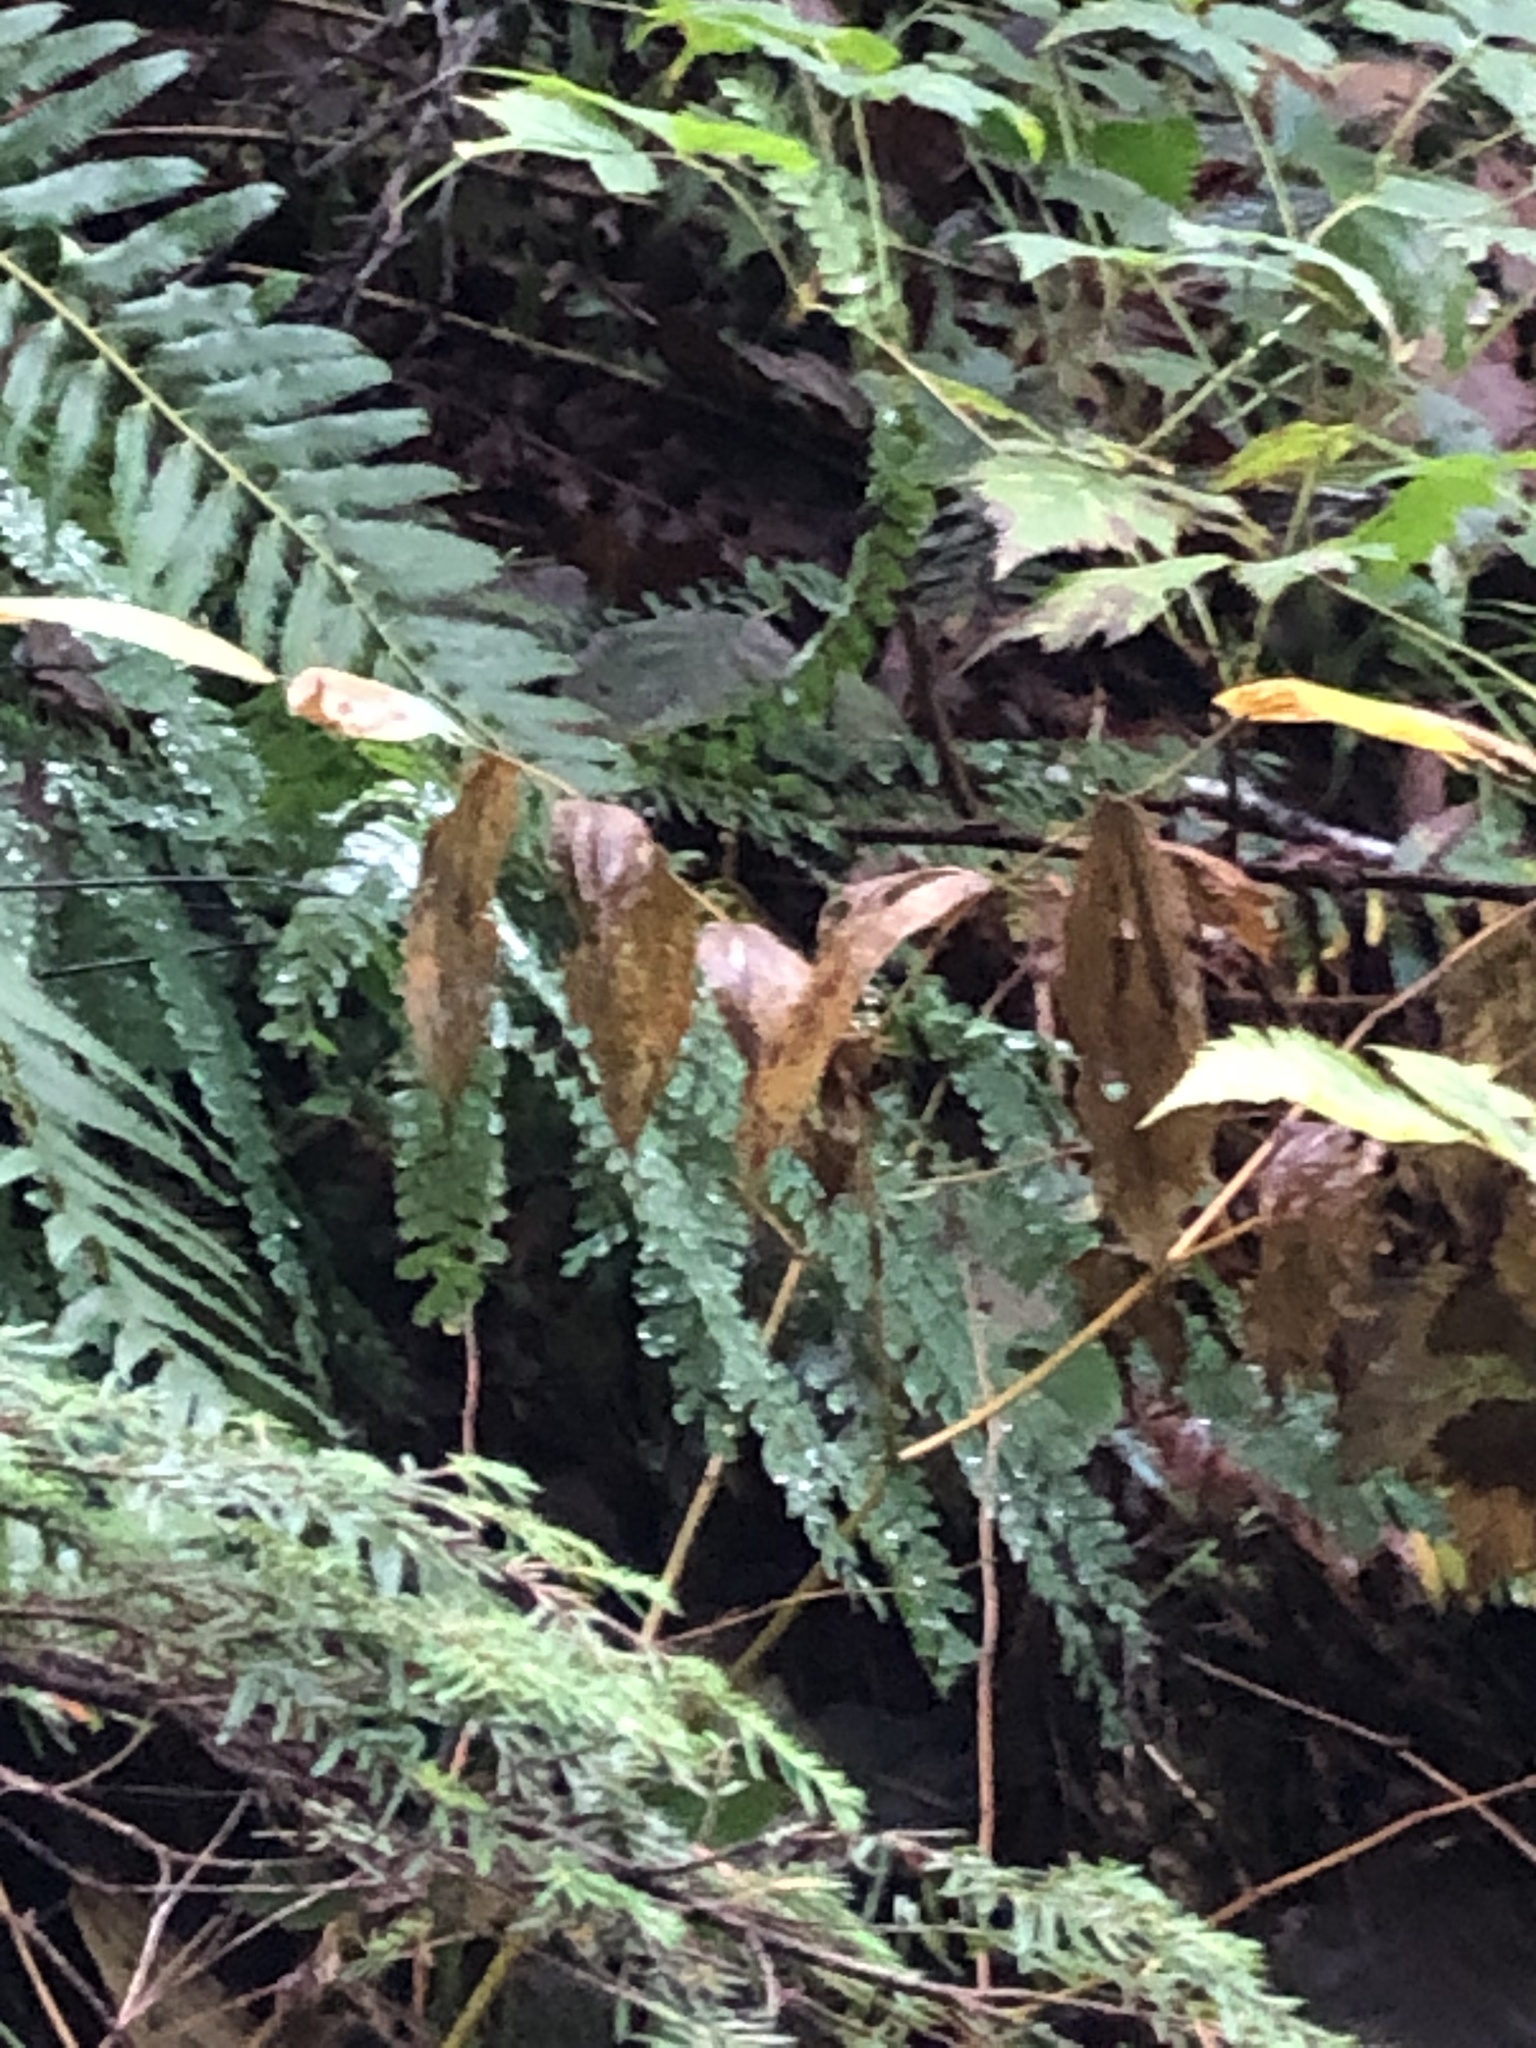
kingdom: Plantae
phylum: Tracheophyta
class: Polypodiopsida
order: Polypodiales
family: Pteridaceae
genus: Adiantum
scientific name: Adiantum aleuticum
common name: Aleutian maidenhair fern
